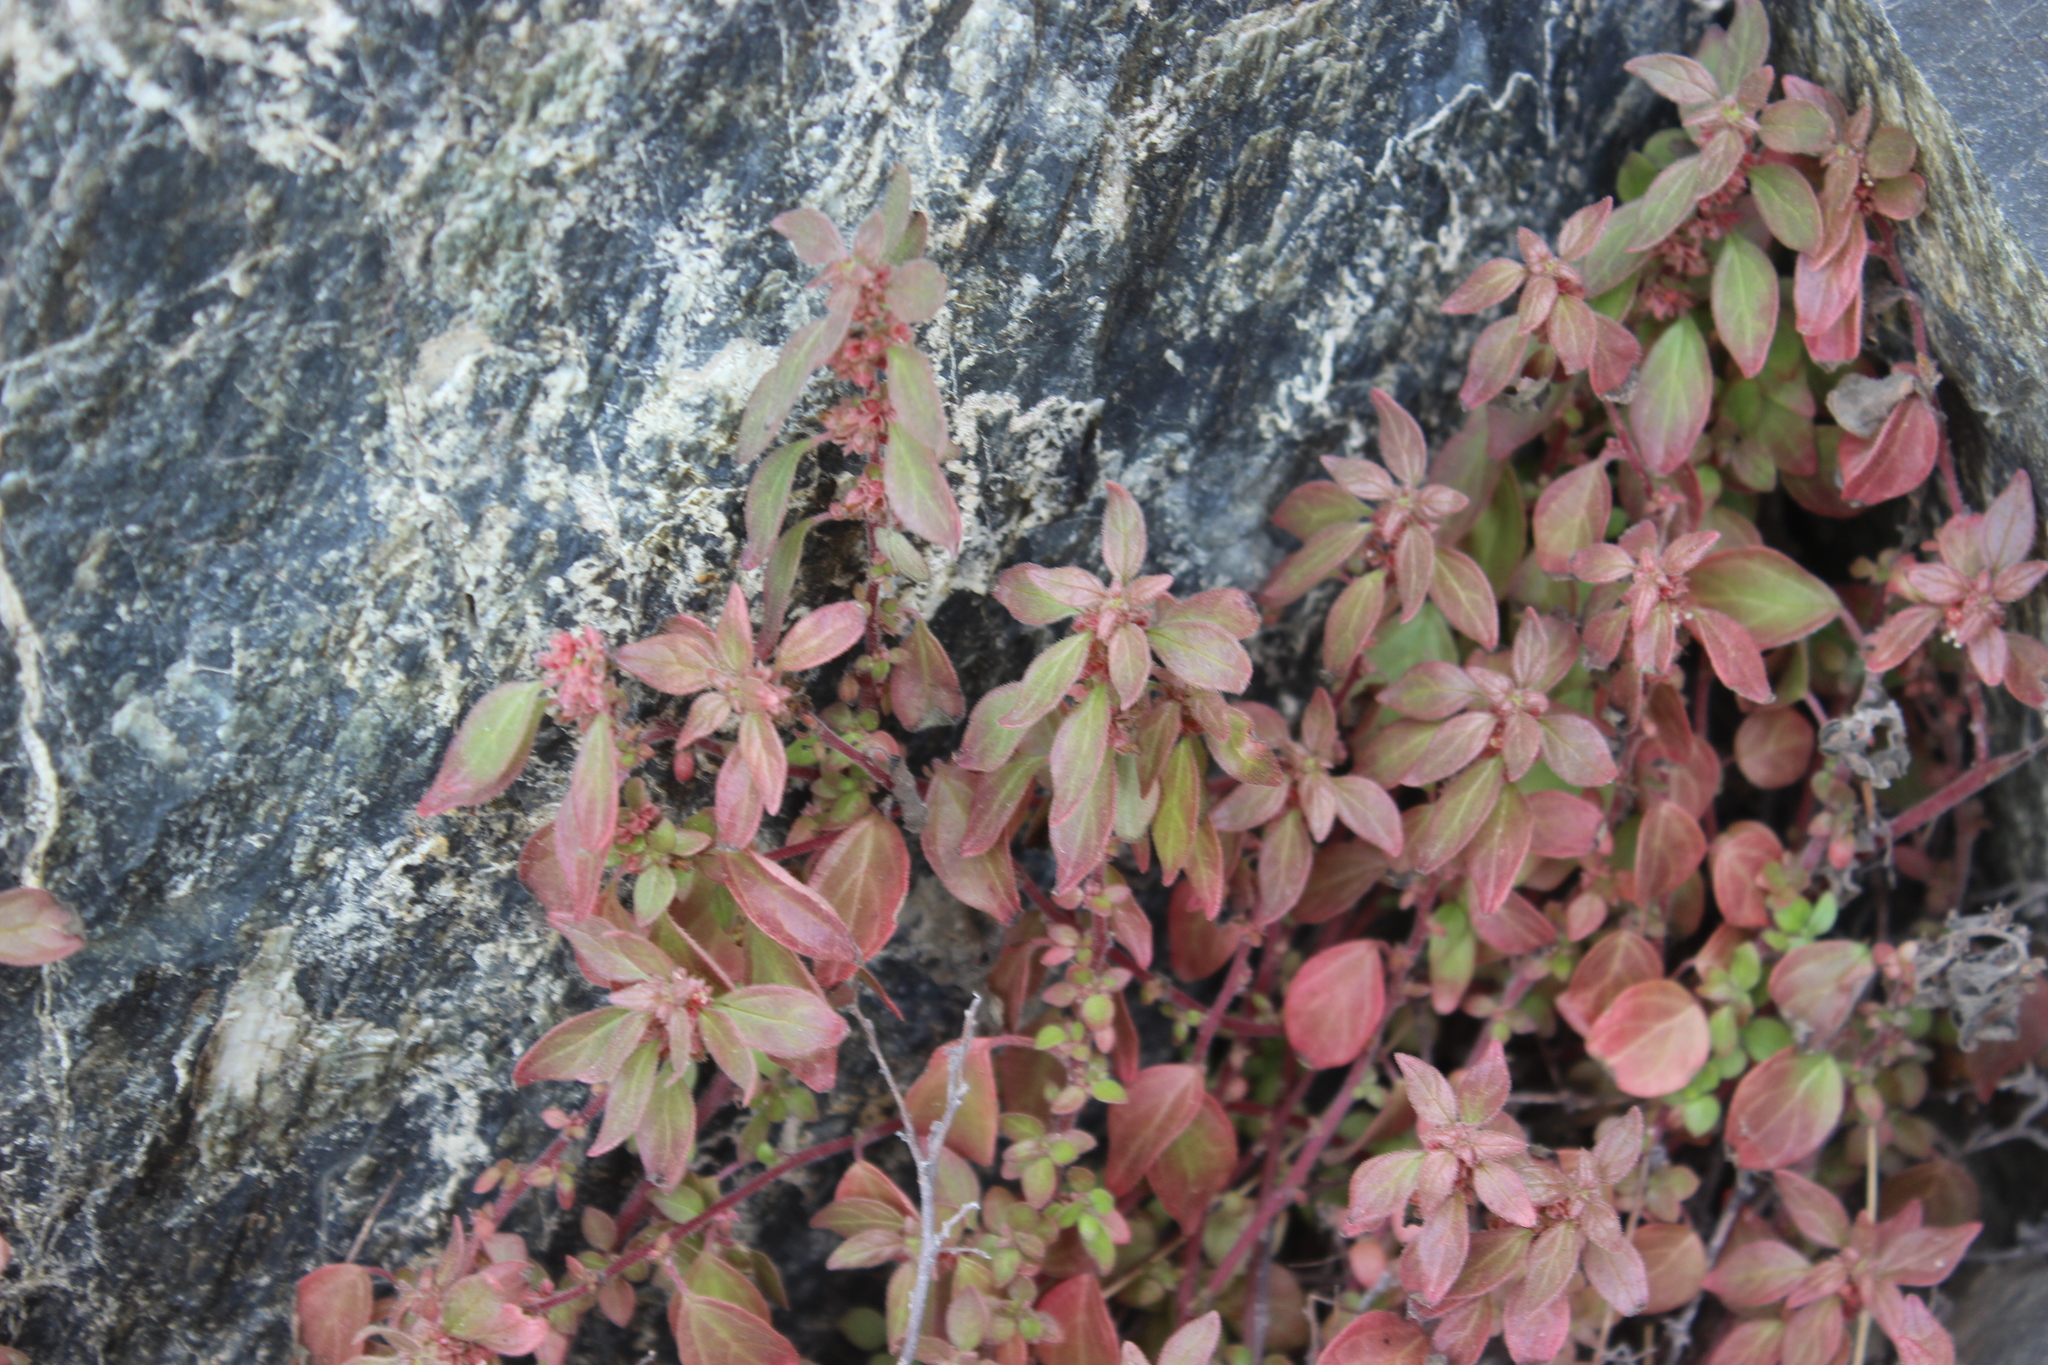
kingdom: Plantae
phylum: Tracheophyta
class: Magnoliopsida
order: Rosales
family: Urticaceae
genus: Parietaria
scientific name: Parietaria judaica
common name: Pellitory-of-the-wall
